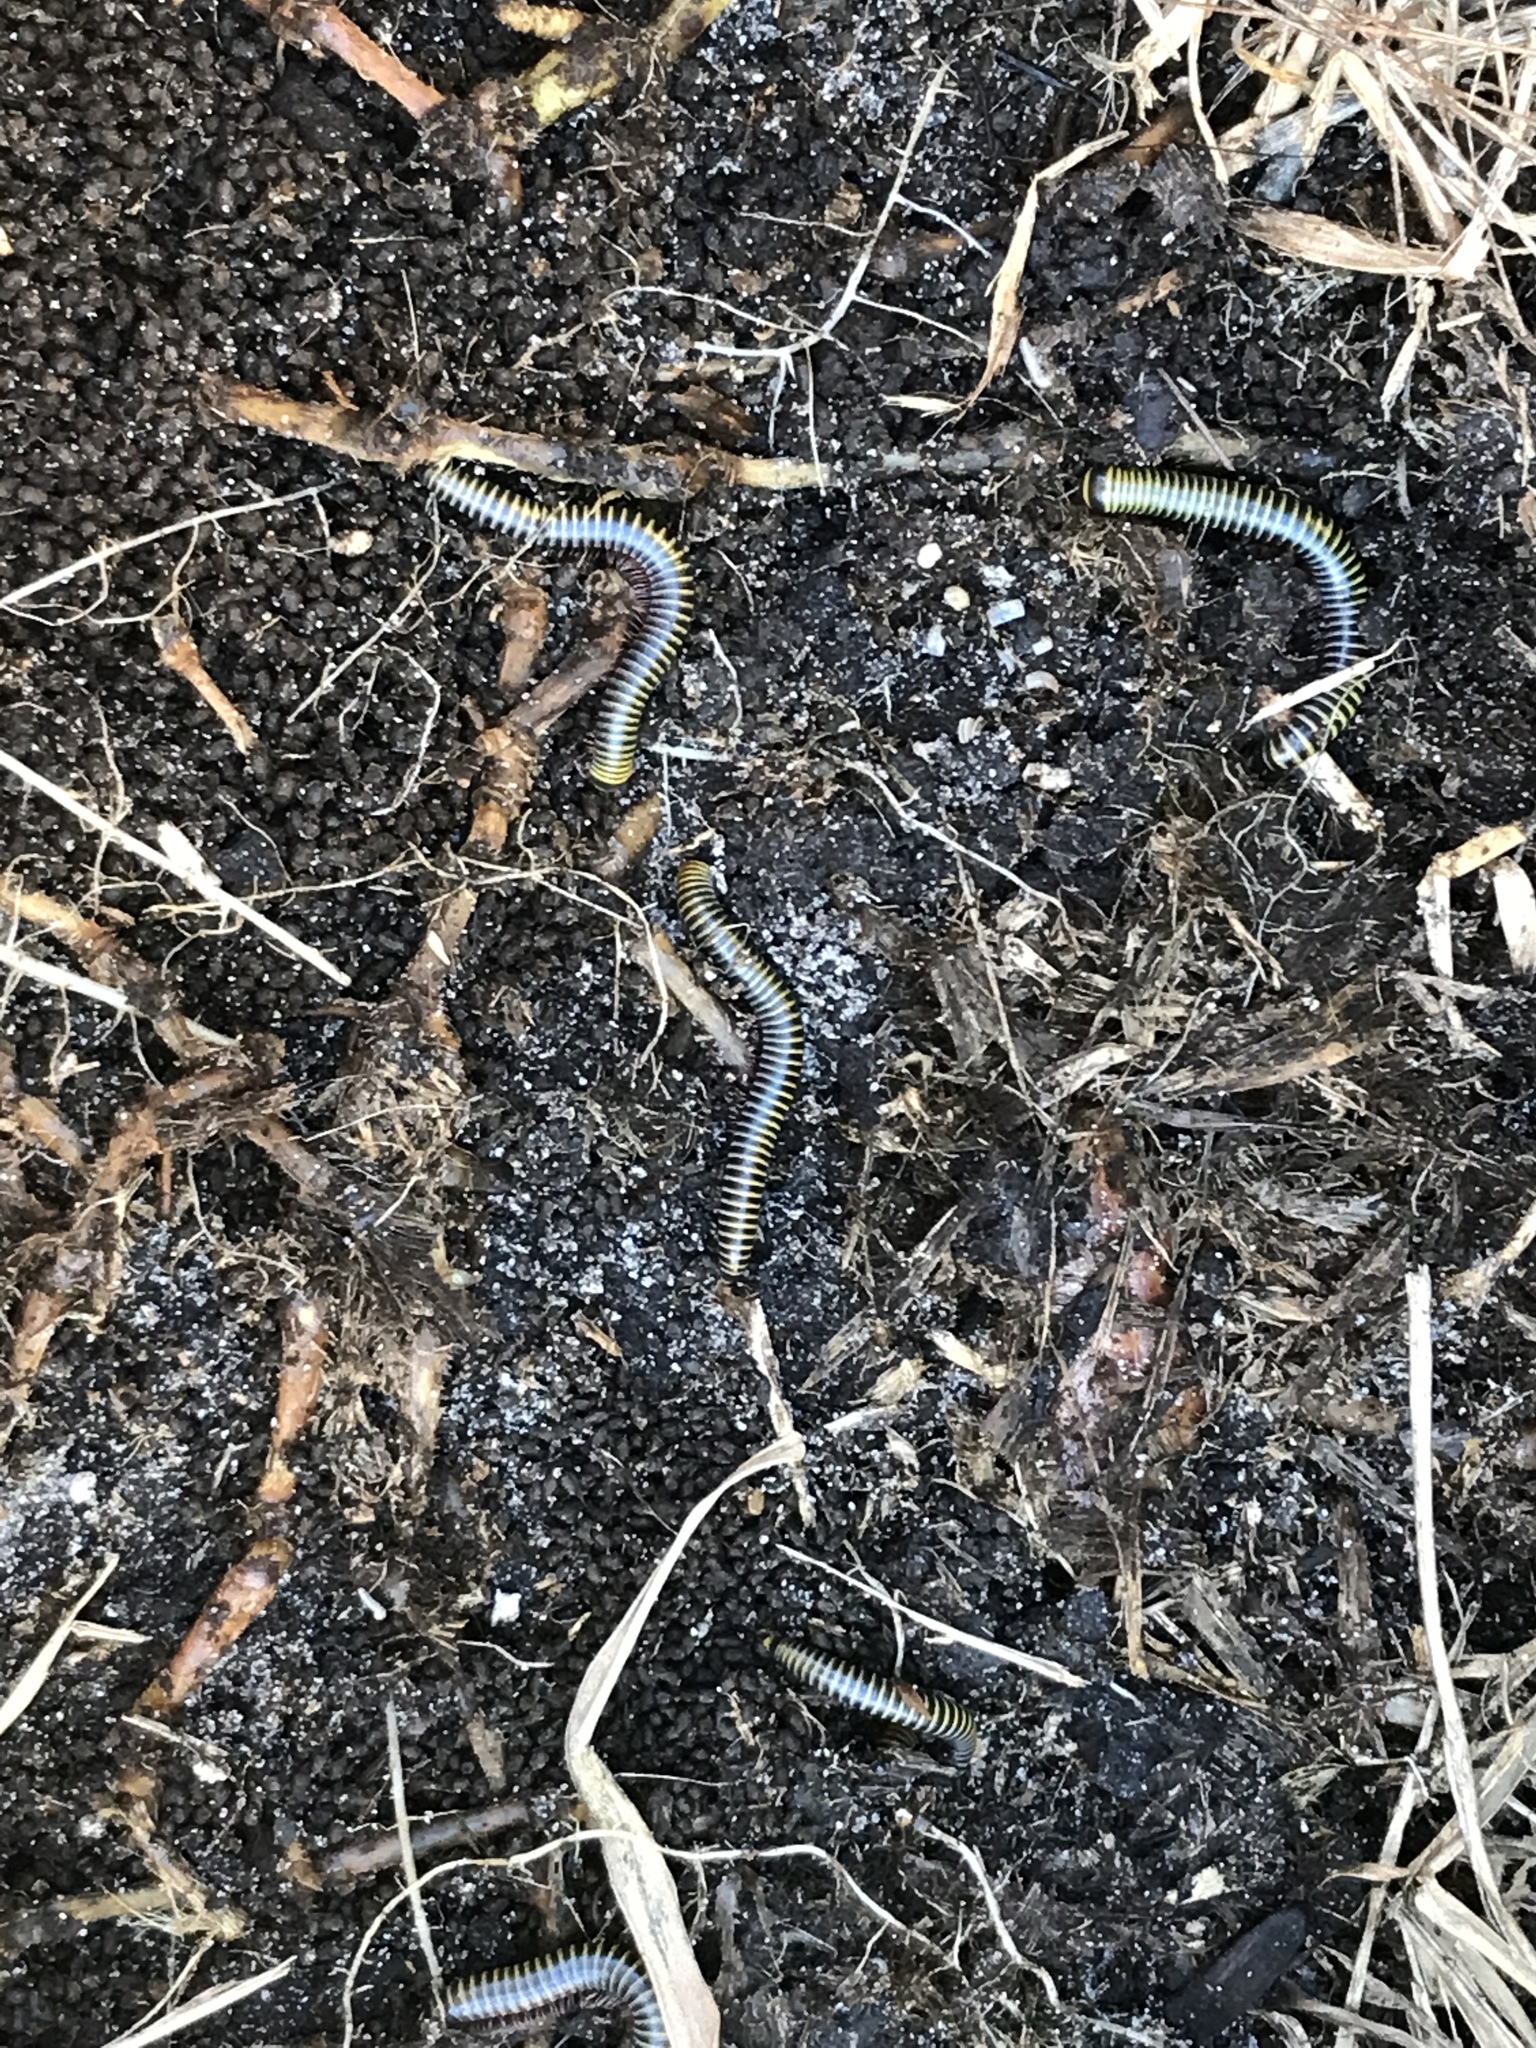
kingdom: Animalia
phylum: Arthropoda
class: Diplopoda
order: Spirobolida
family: Rhinocricidae
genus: Anadenobolus
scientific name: Anadenobolus monilicornis
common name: Caribbean millipede
